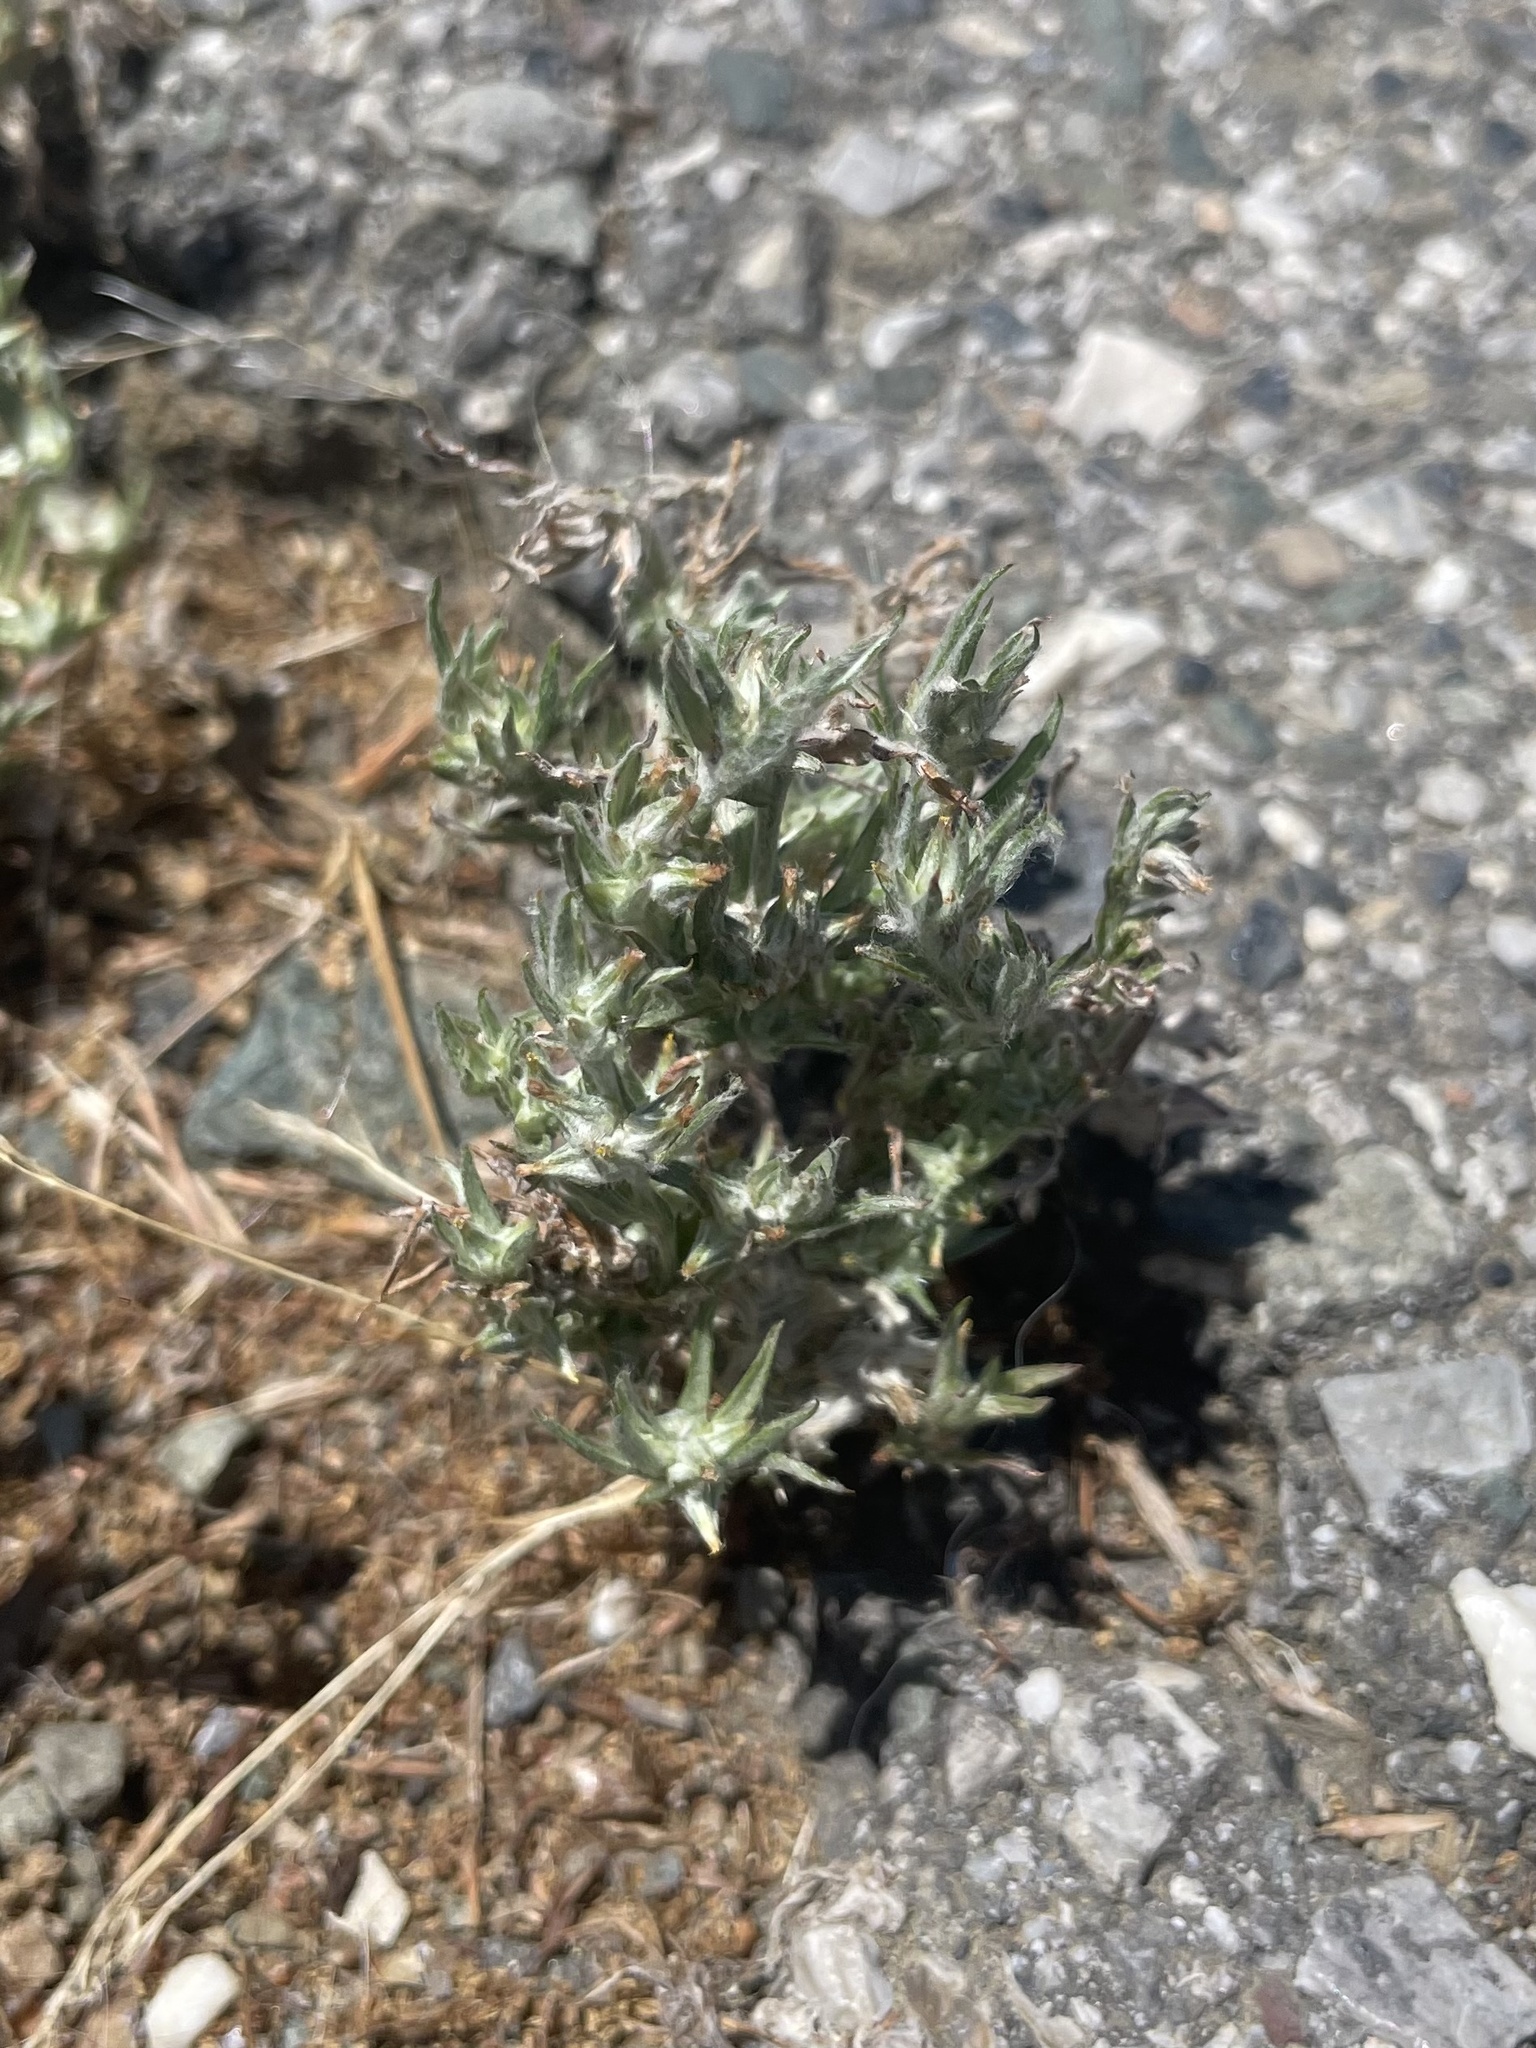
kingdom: Plantae
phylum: Tracheophyta
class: Magnoliopsida
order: Asterales
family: Asteraceae
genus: Logfia
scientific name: Logfia gallica
